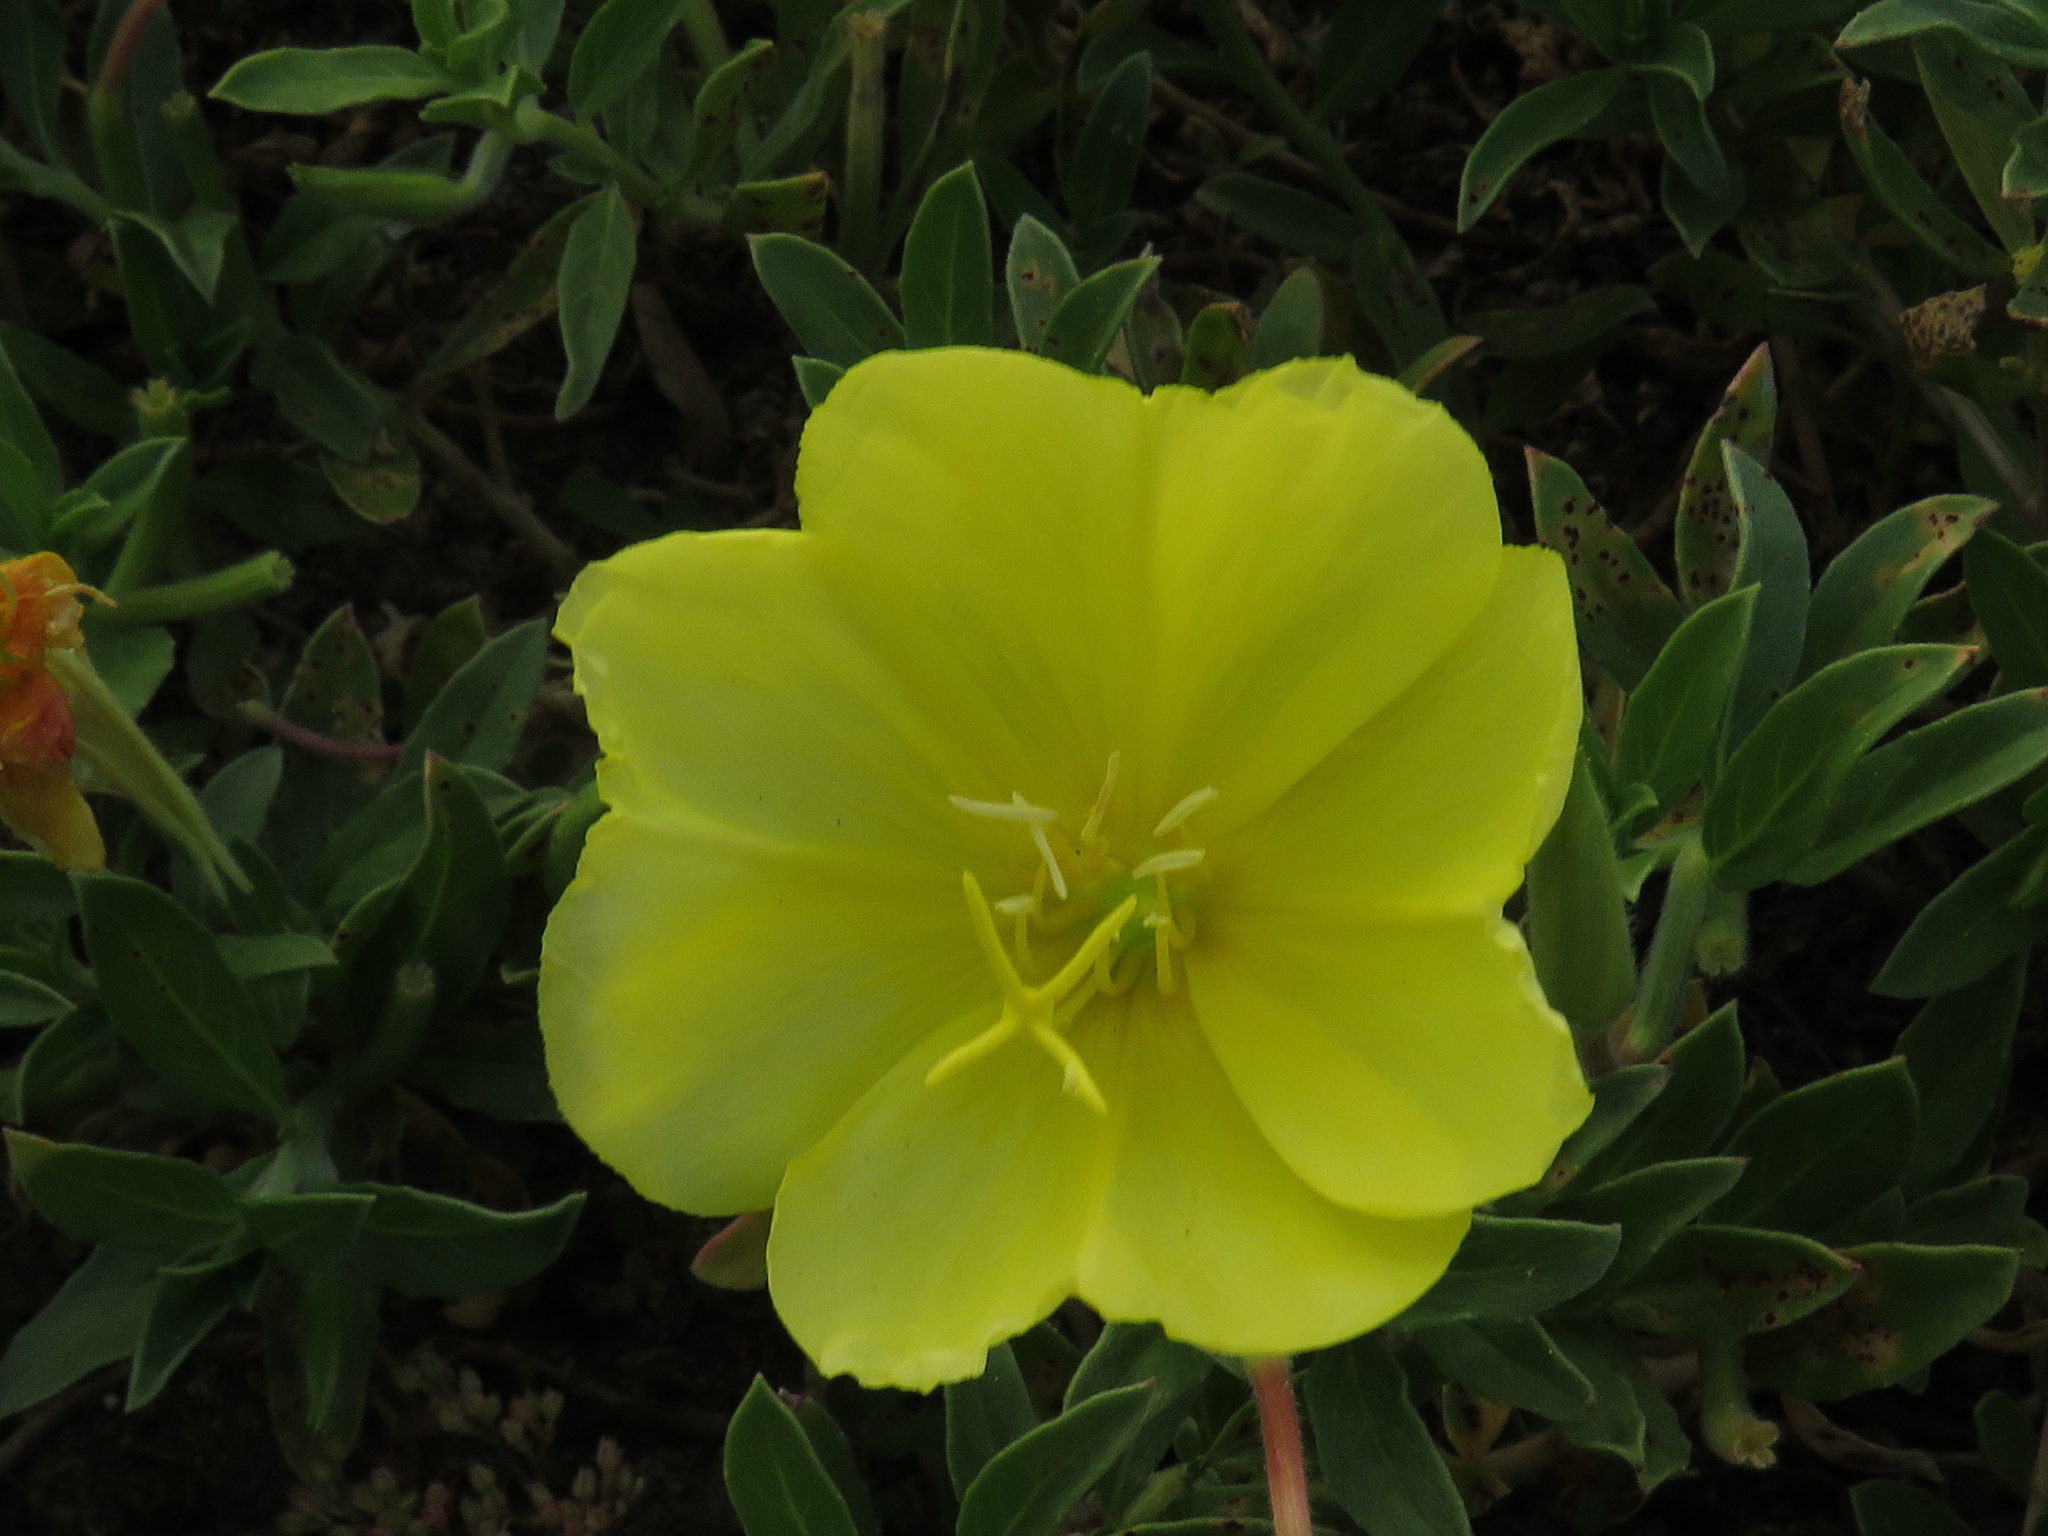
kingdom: Plantae
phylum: Tracheophyta
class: Magnoliopsida
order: Myrtales
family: Onagraceae
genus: Oenothera
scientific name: Oenothera drummondii
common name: Beach evening-primrose
